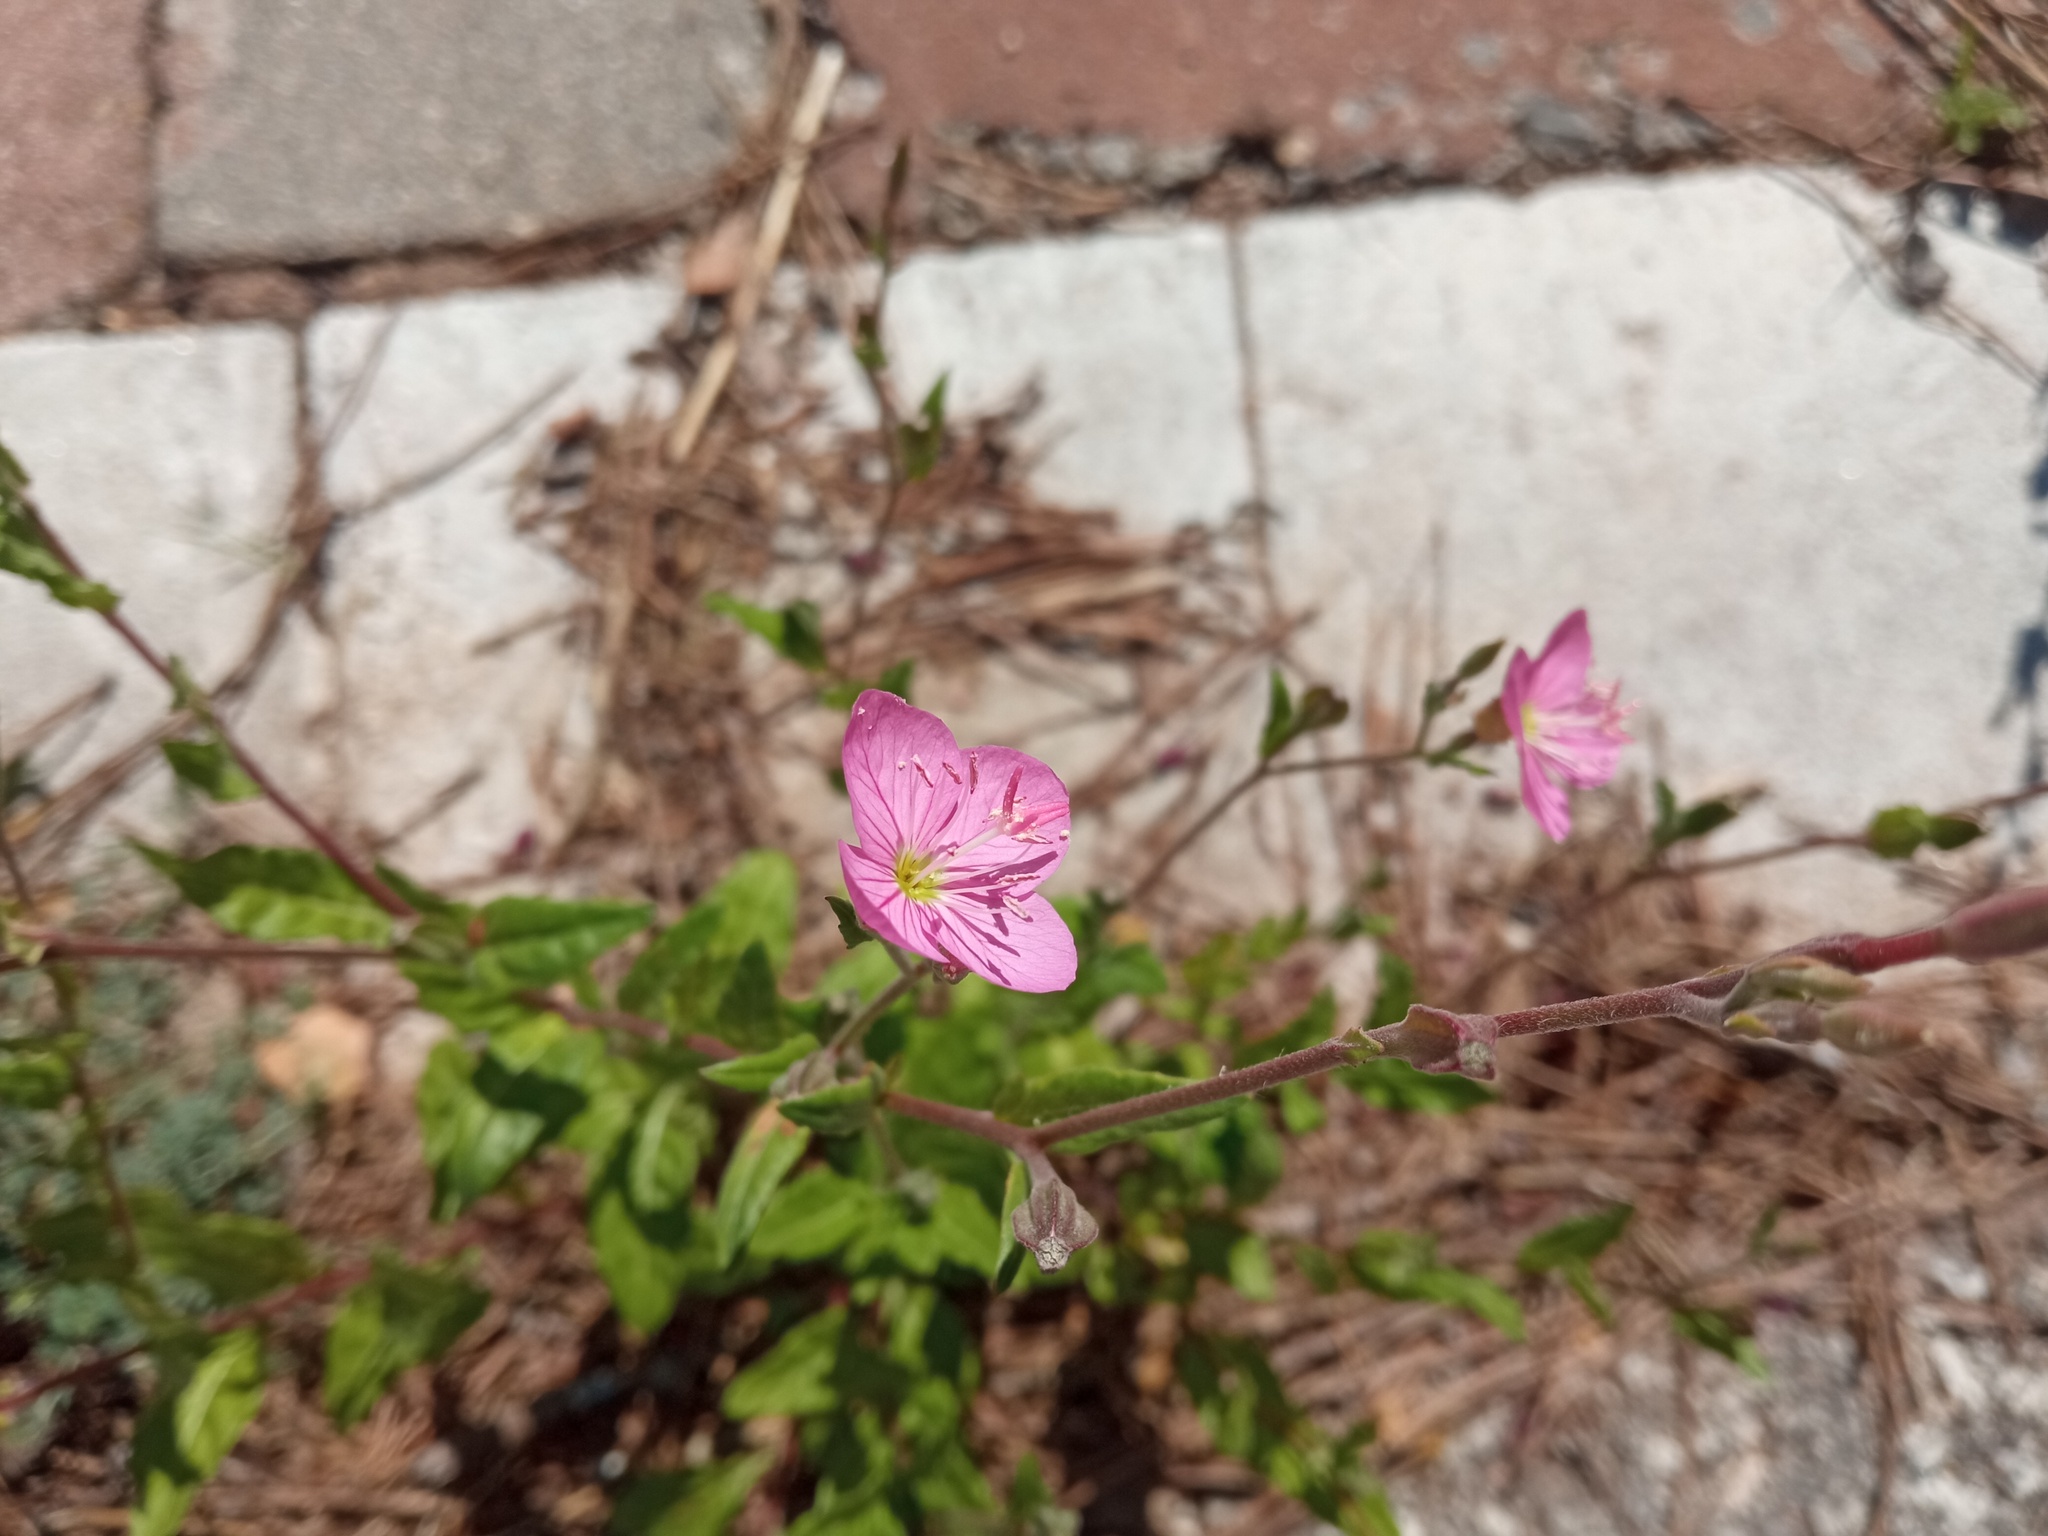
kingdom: Plantae
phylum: Tracheophyta
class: Magnoliopsida
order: Myrtales
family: Onagraceae
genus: Oenothera
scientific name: Oenothera rosea
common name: Rosy evening-primrose
